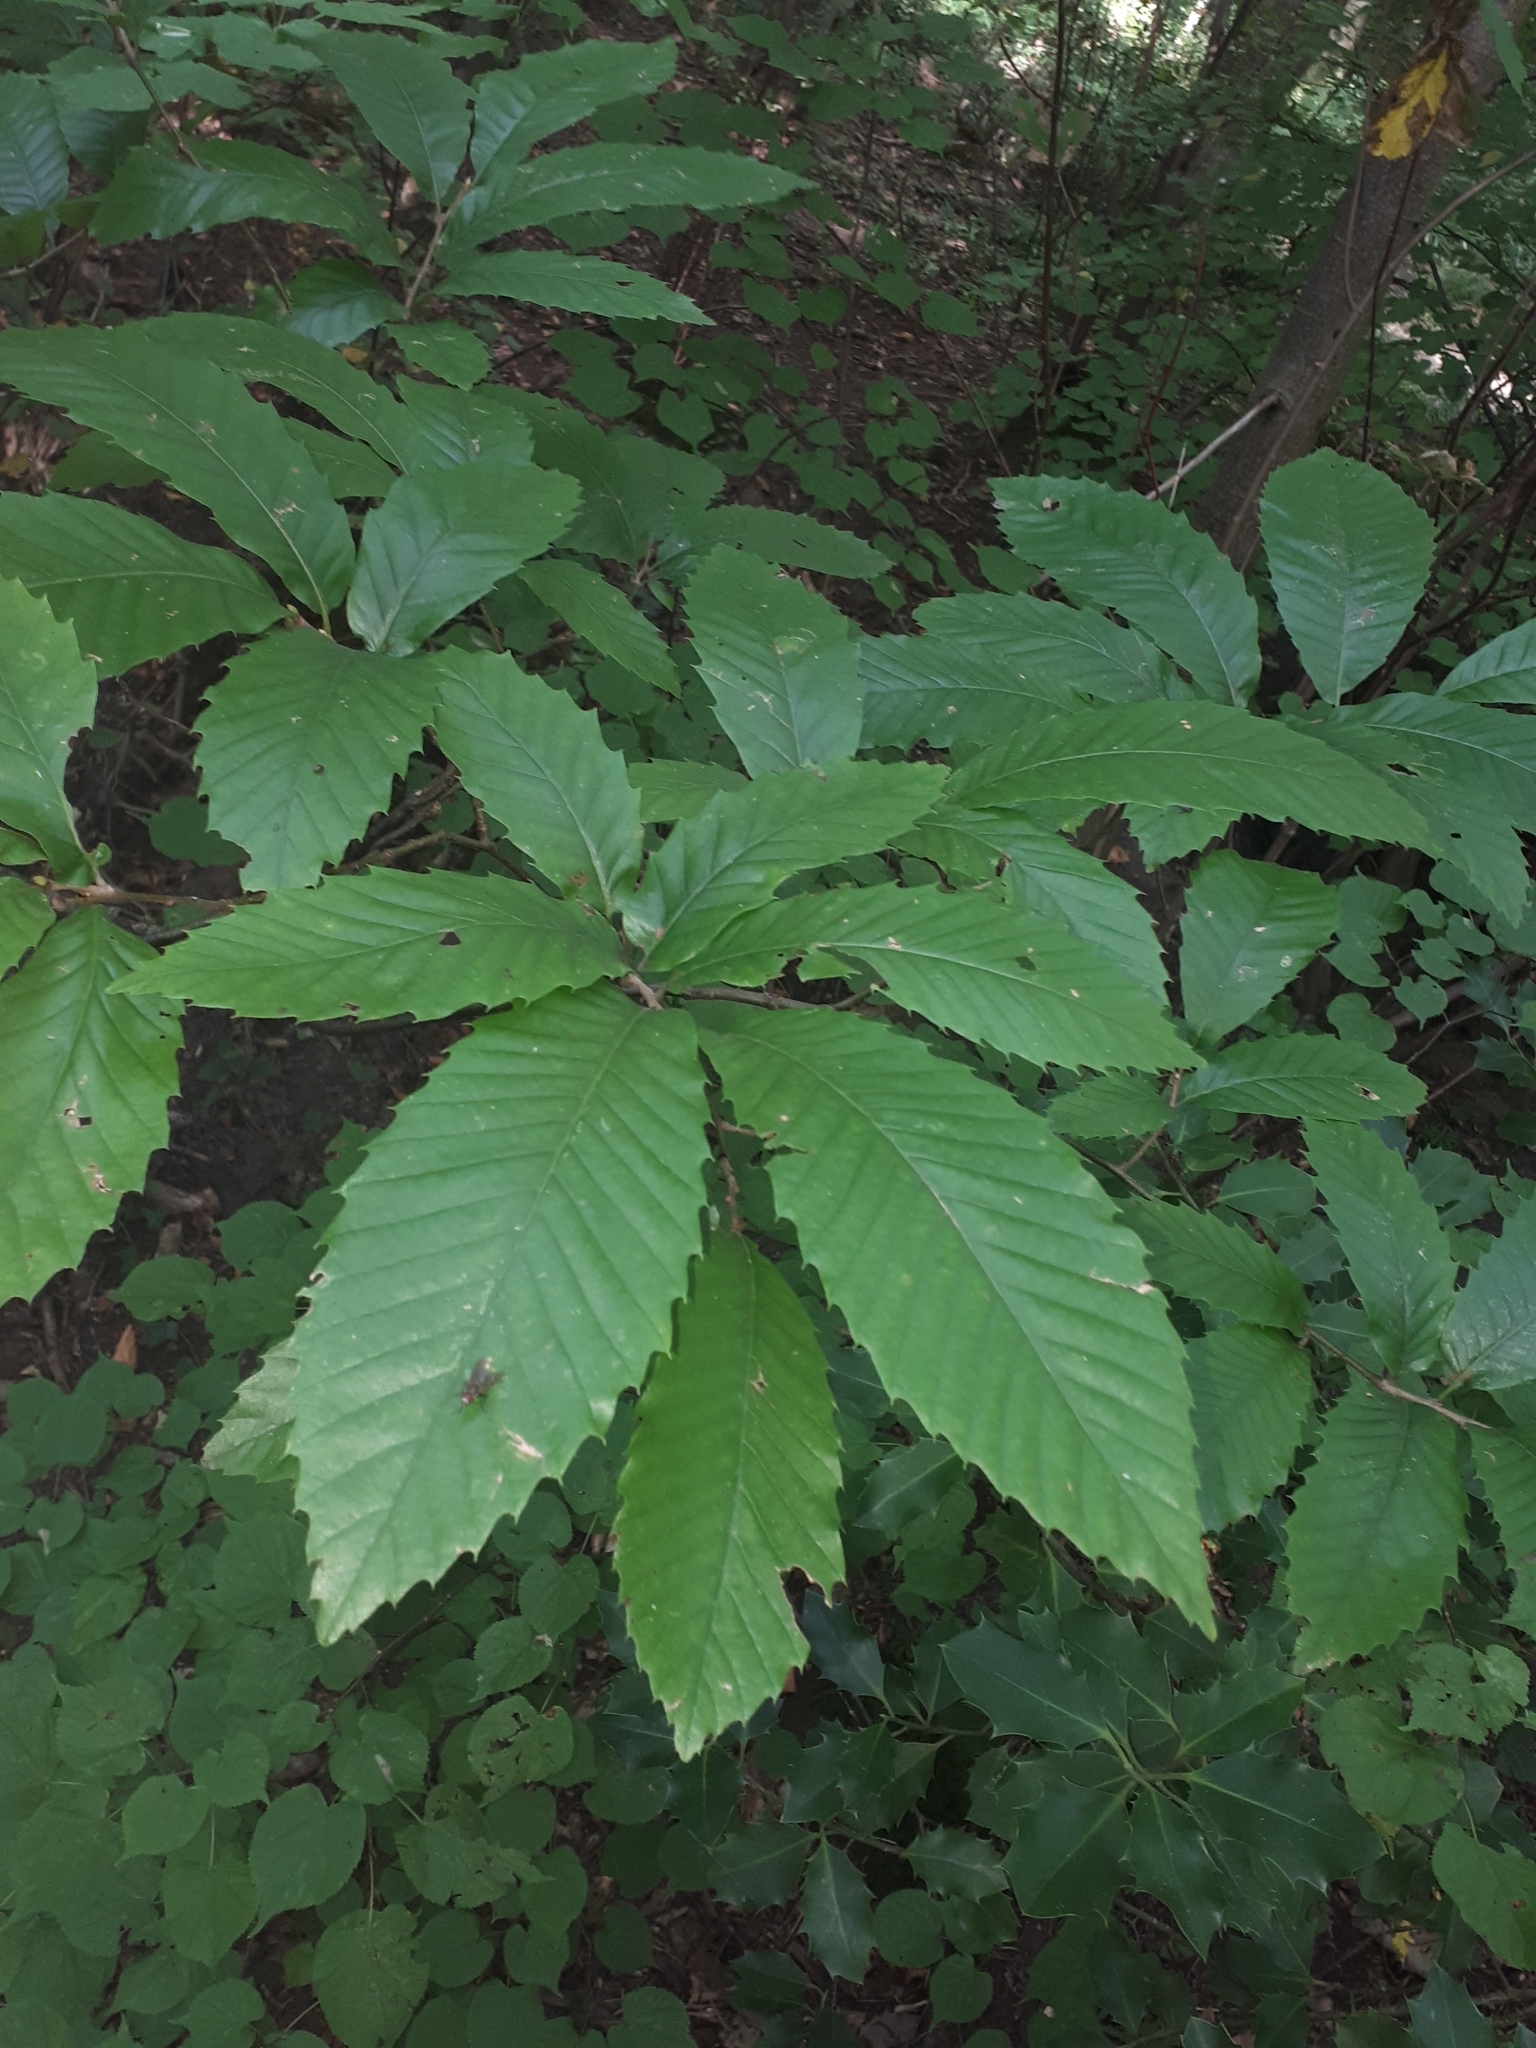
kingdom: Plantae
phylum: Tracheophyta
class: Magnoliopsida
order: Fagales
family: Fagaceae
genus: Castanea
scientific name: Castanea sativa
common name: Sweet chestnut
